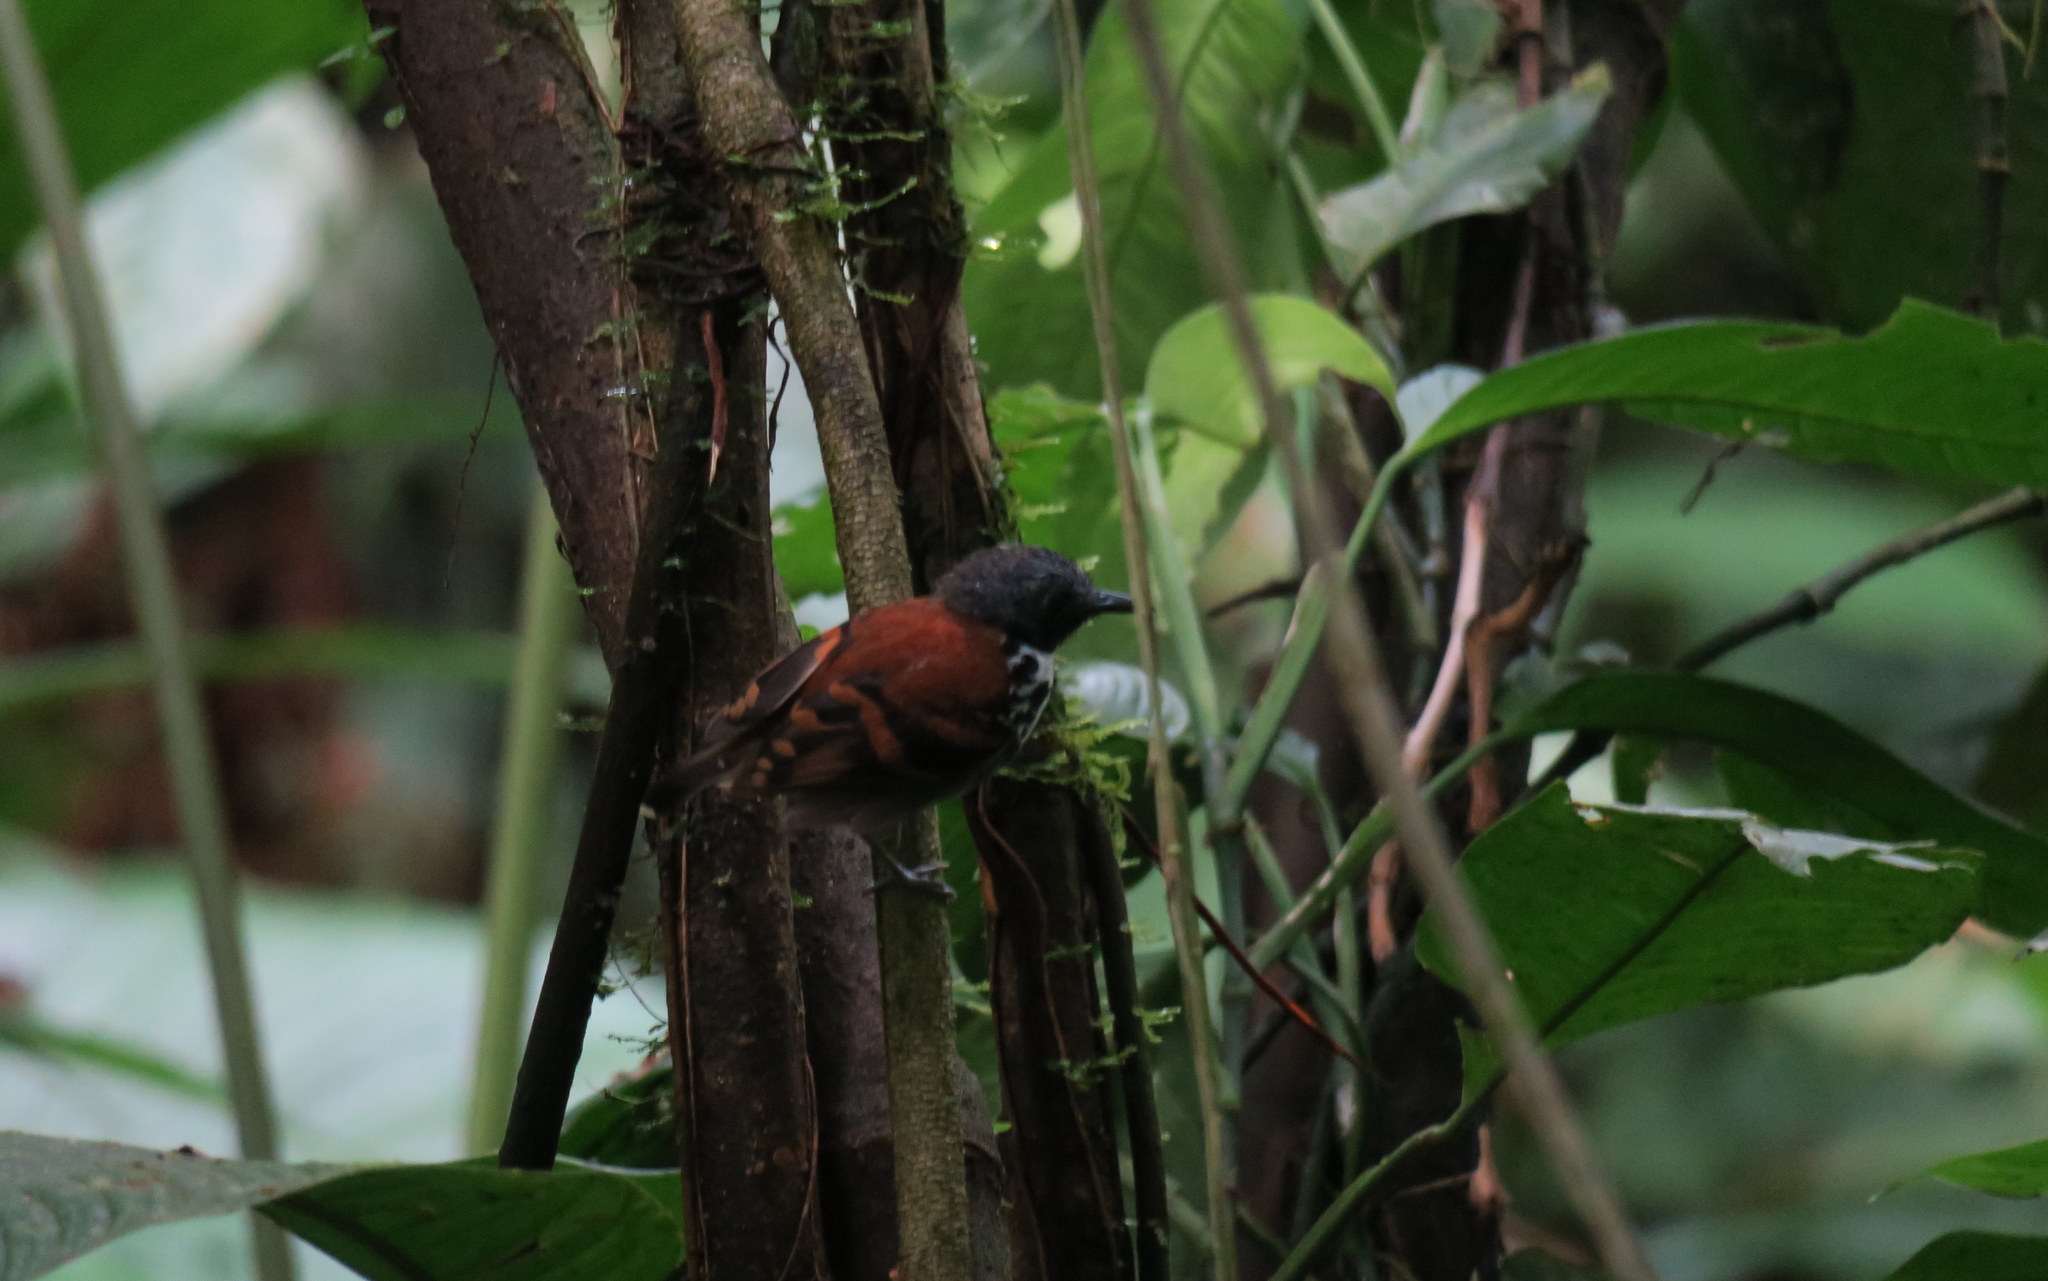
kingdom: Animalia
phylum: Chordata
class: Aves
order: Passeriformes
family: Thamnophilidae
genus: Hylophylax
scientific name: Hylophylax naevioides
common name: Spotted antbird
